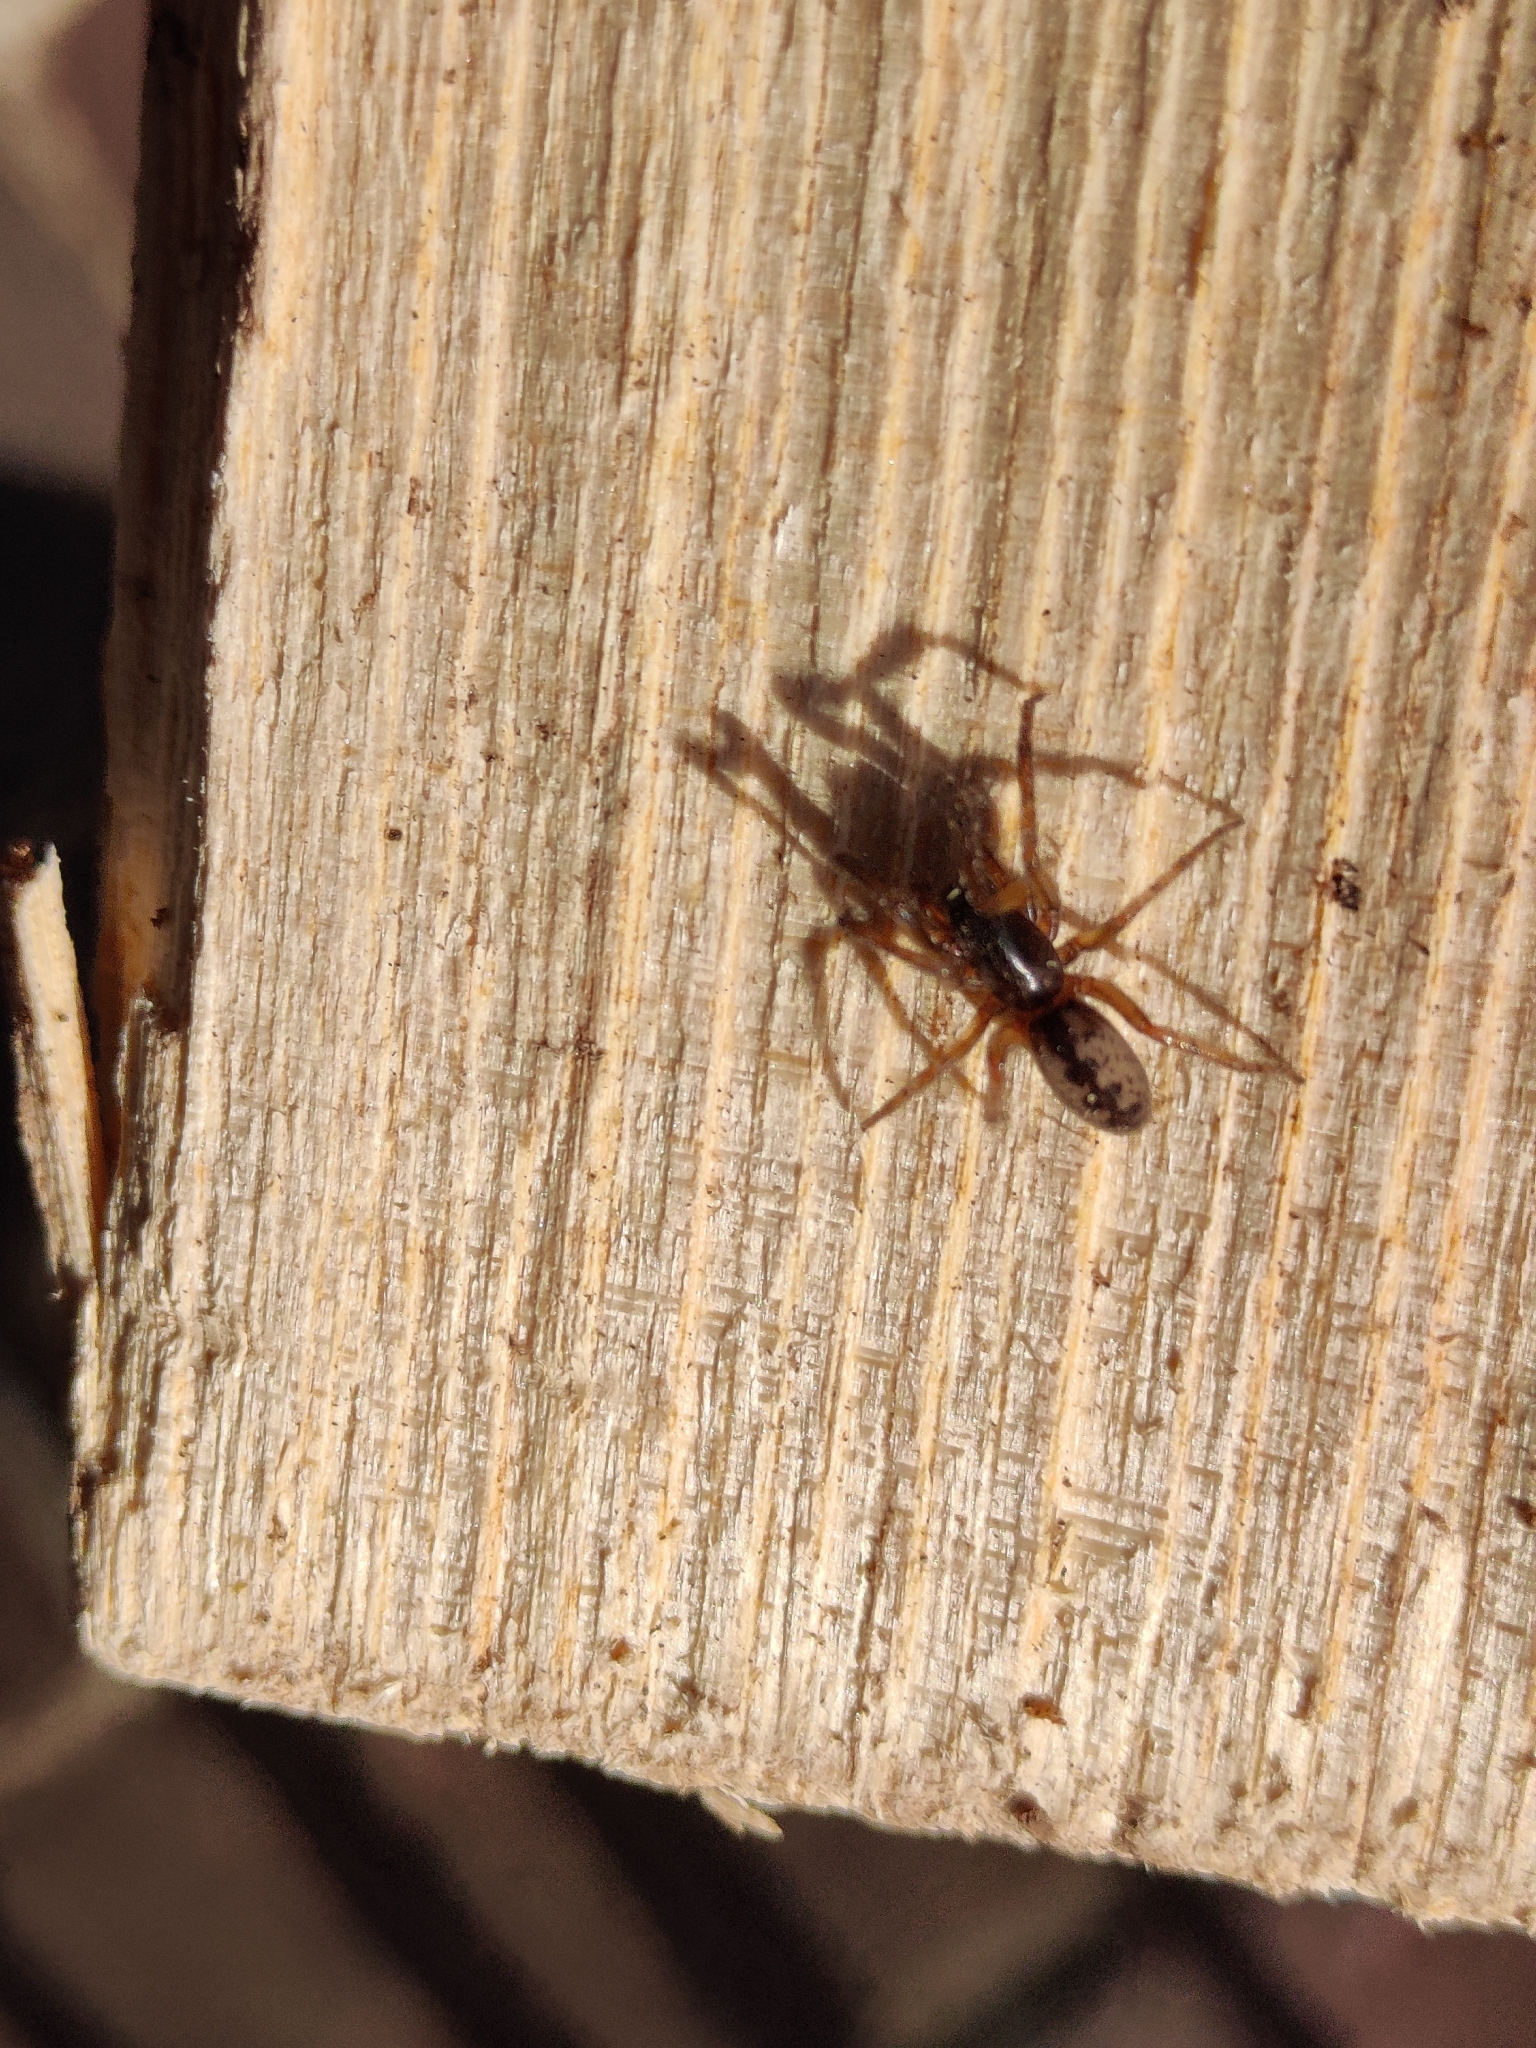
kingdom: Animalia
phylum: Arthropoda
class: Arachnida
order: Araneae
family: Segestriidae
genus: Segestria
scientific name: Segestria senoculata
